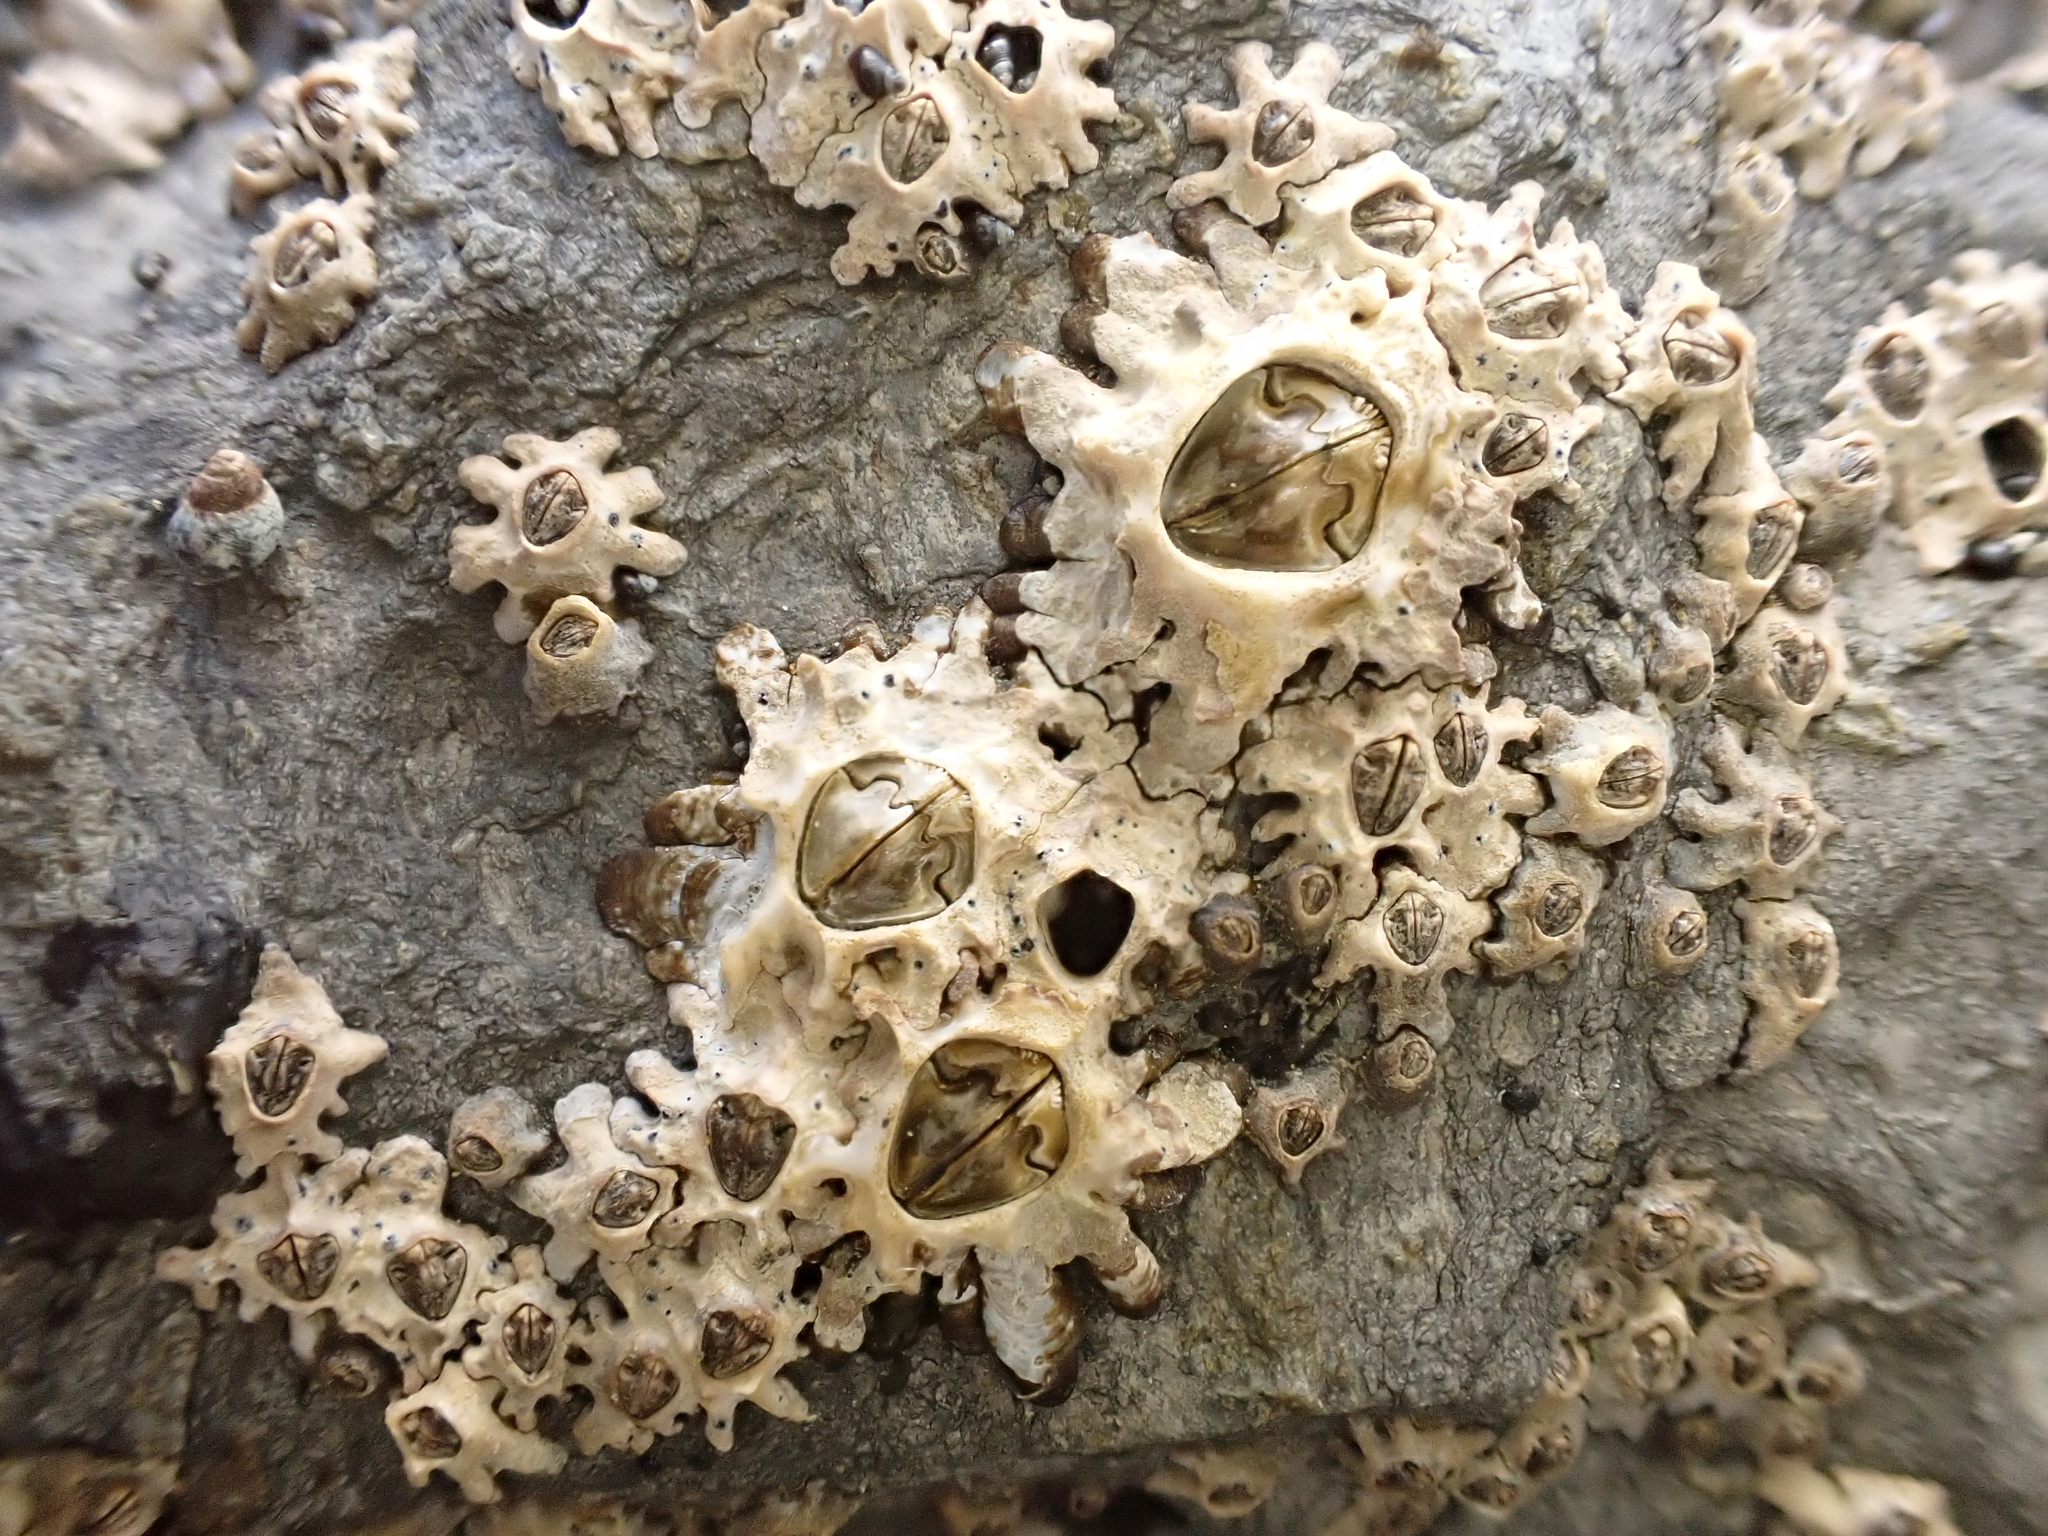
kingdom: Animalia
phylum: Arthropoda
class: Maxillopoda
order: Sessilia
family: Chthamalidae
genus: Chamaesipho
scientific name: Chamaesipho brunnea
